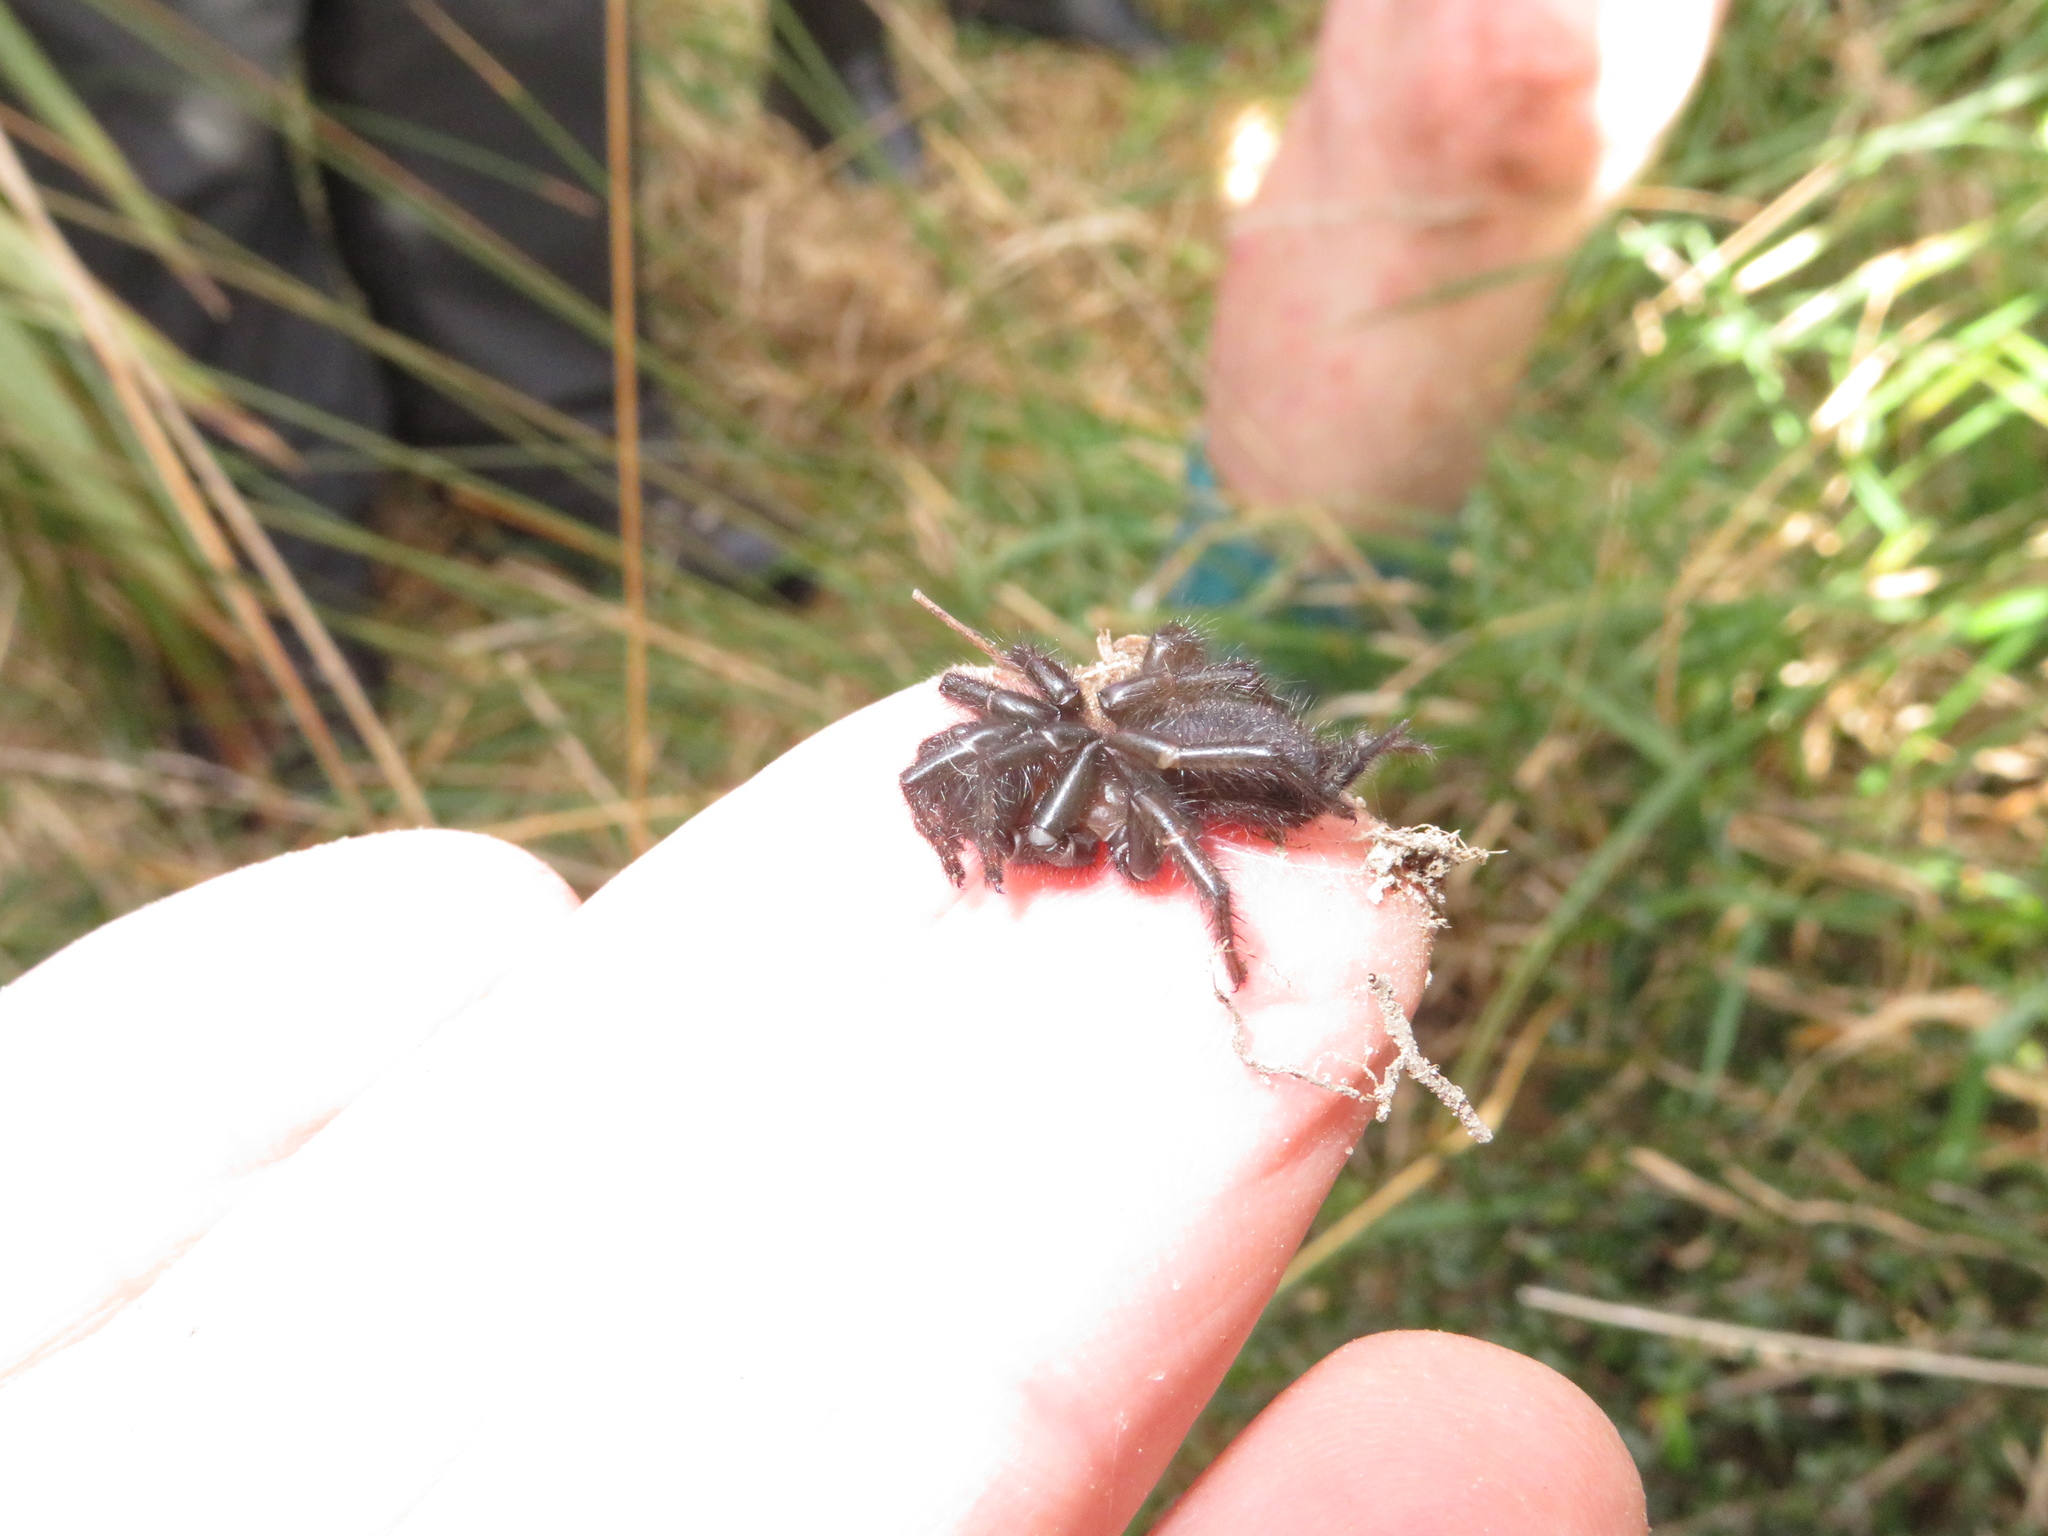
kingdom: Animalia
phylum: Arthropoda
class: Arachnida
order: Araneae
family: Porrhothelidae
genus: Porrhothele
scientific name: Porrhothele antipodiana
